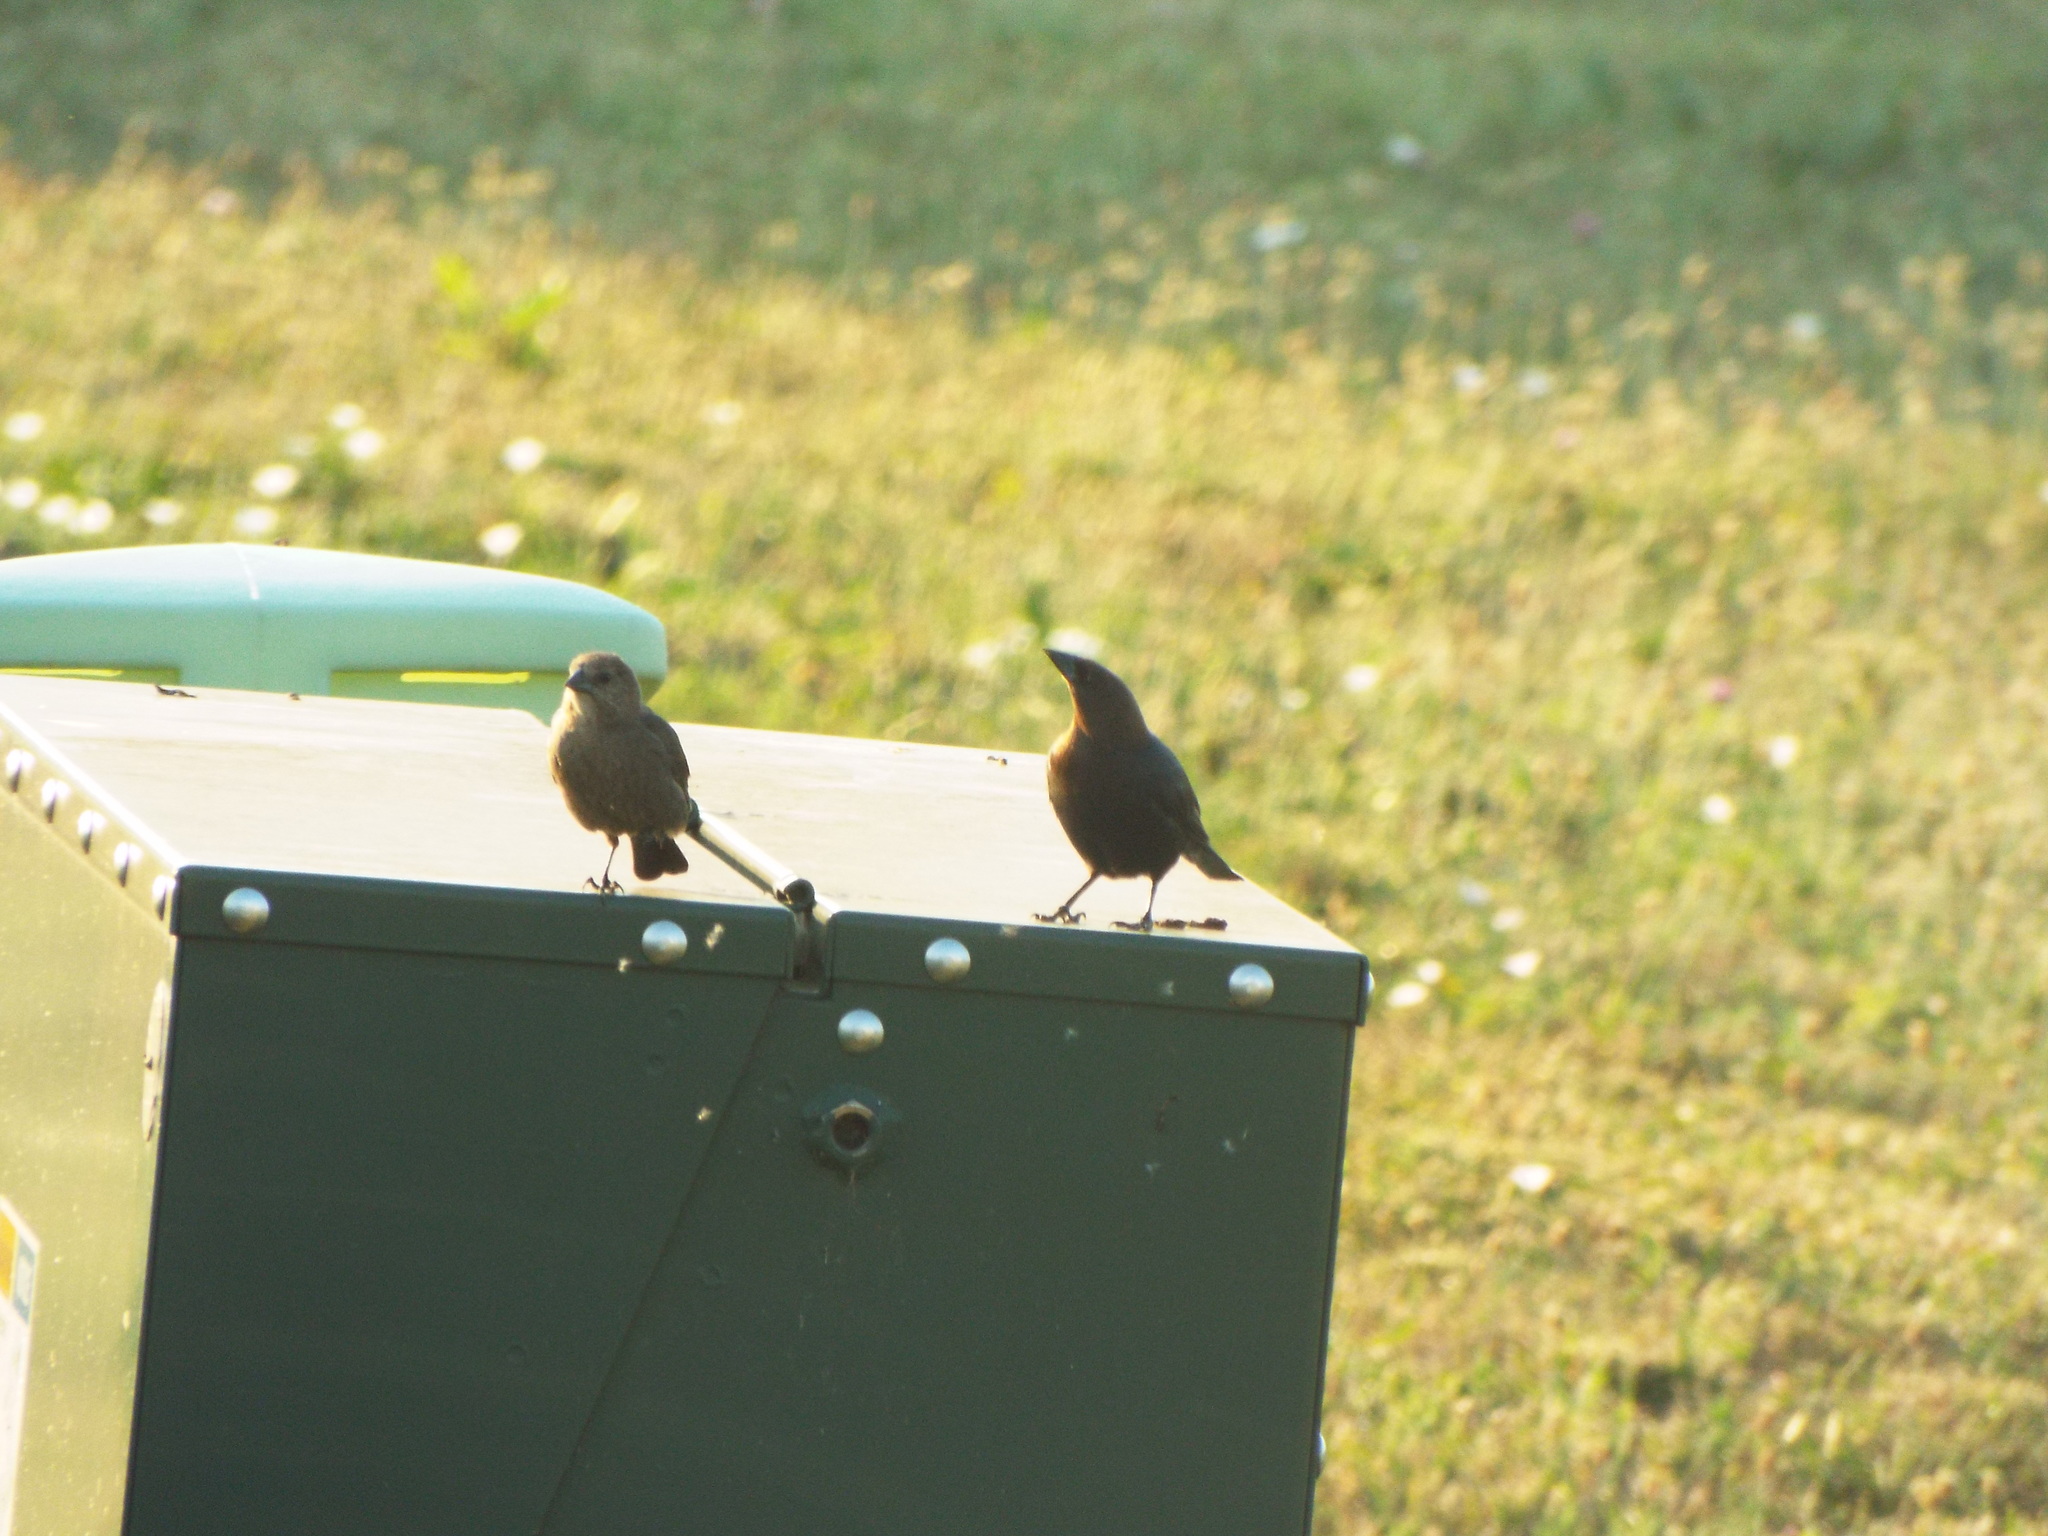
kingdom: Animalia
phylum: Chordata
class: Aves
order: Passeriformes
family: Icteridae
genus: Molothrus
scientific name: Molothrus ater
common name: Brown-headed cowbird
